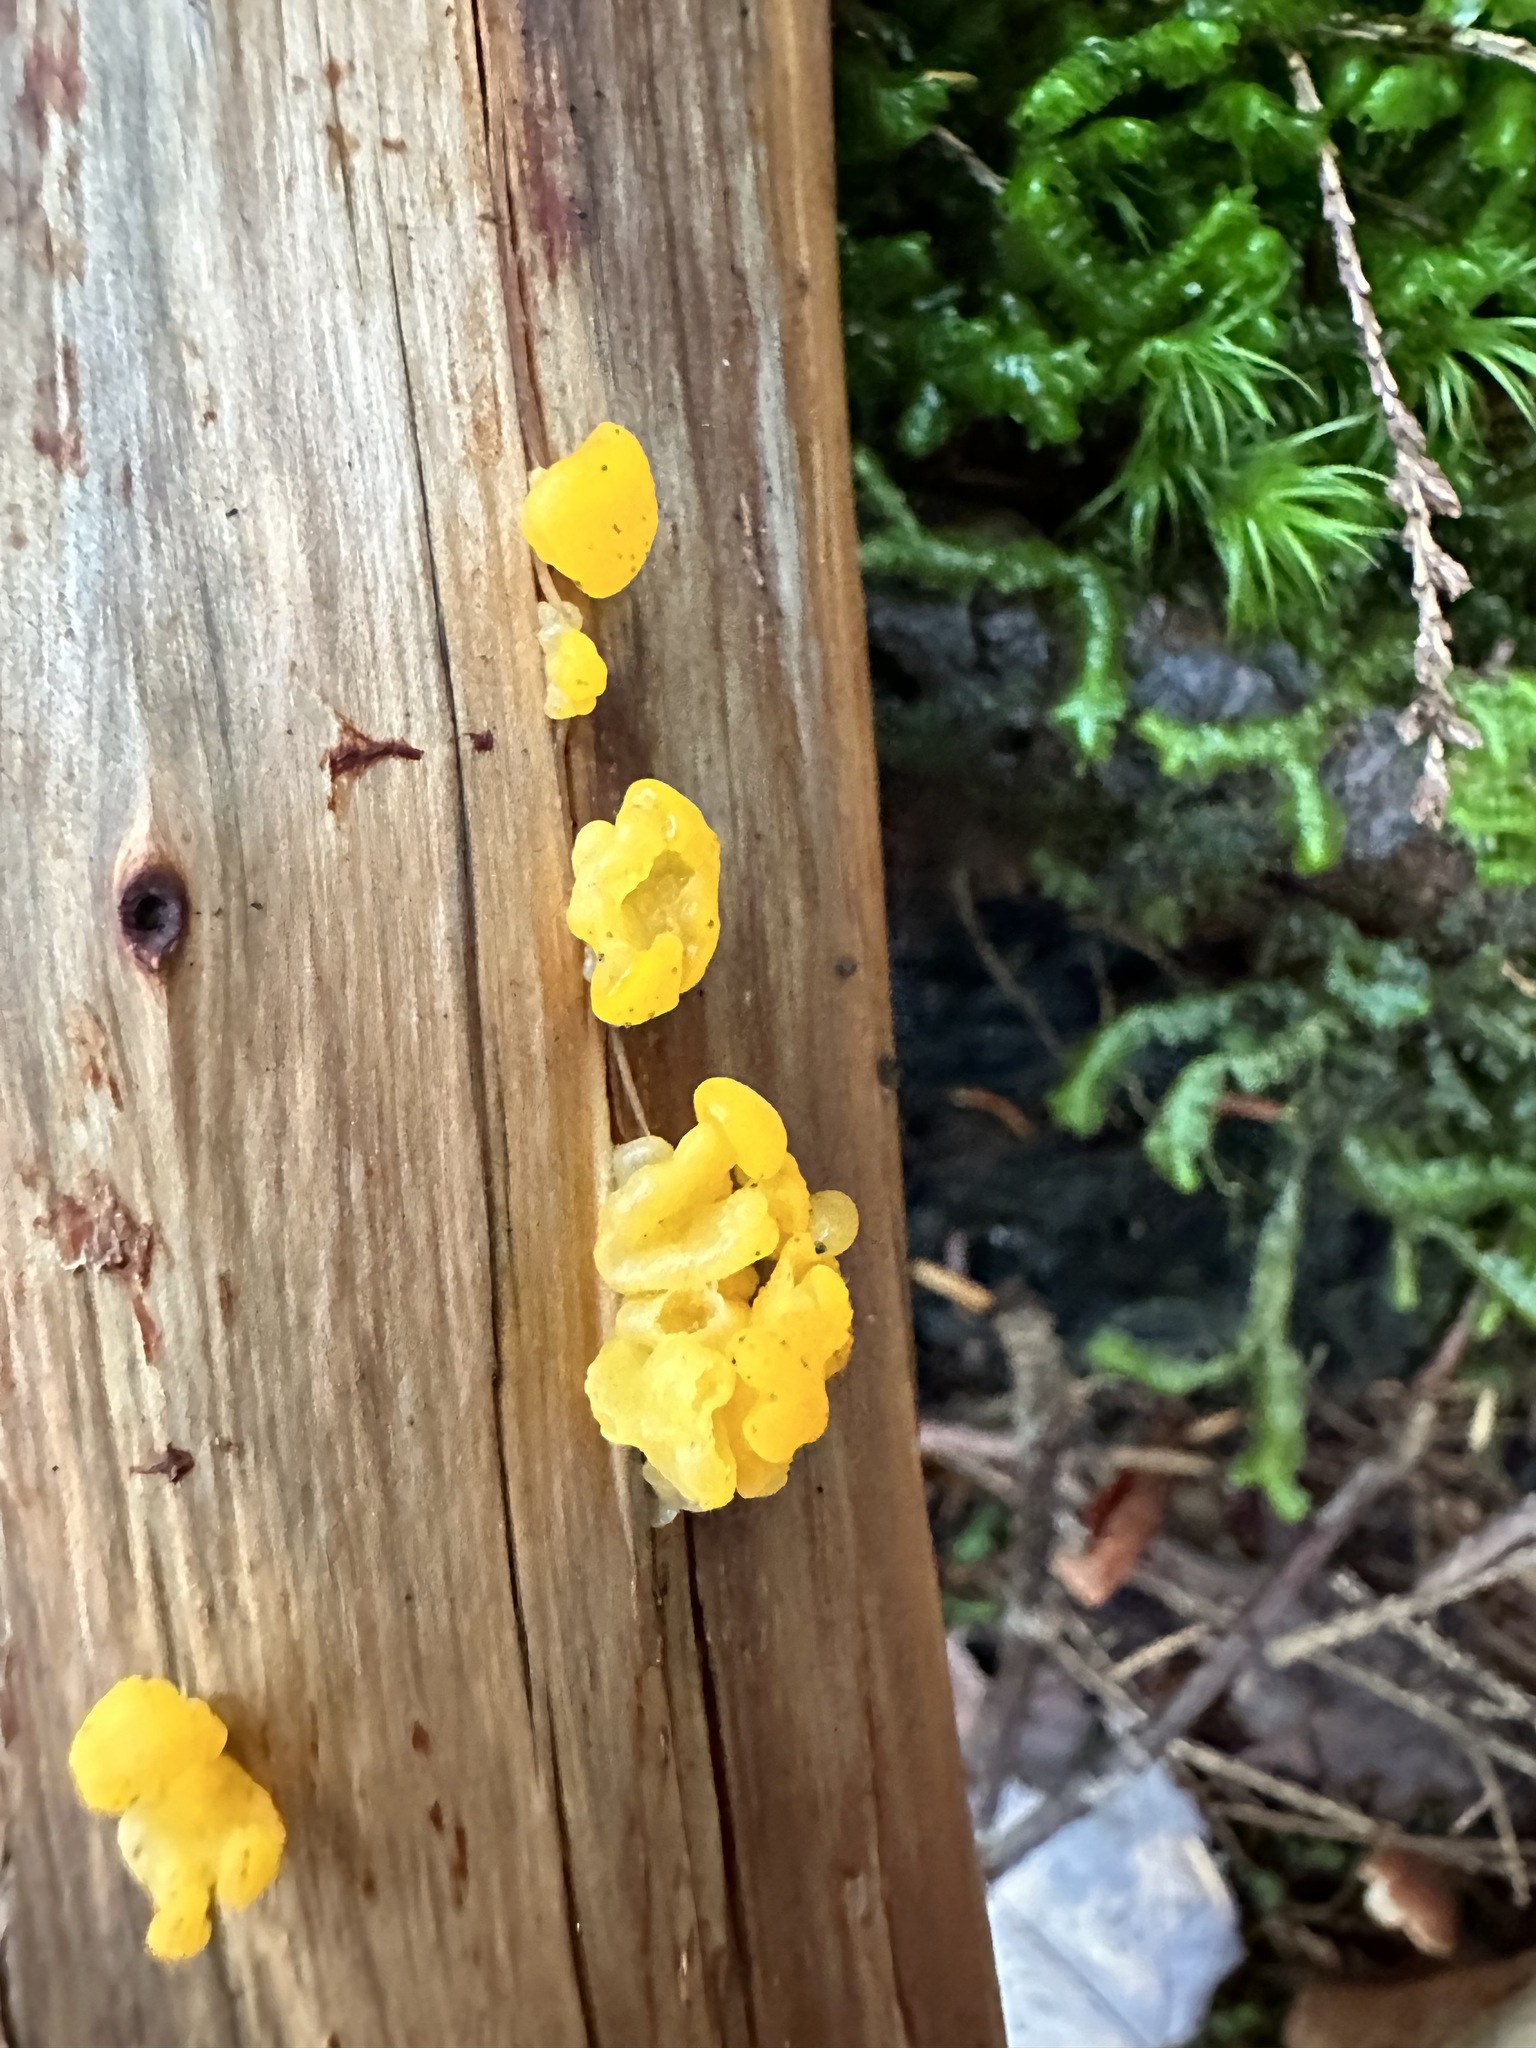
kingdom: Fungi
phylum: Basidiomycota
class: Dacrymycetes
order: Dacrymycetales
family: Dacrymycetaceae
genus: Dacrymyces
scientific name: Dacrymyces chrysospermus
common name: Orange jelly spot
